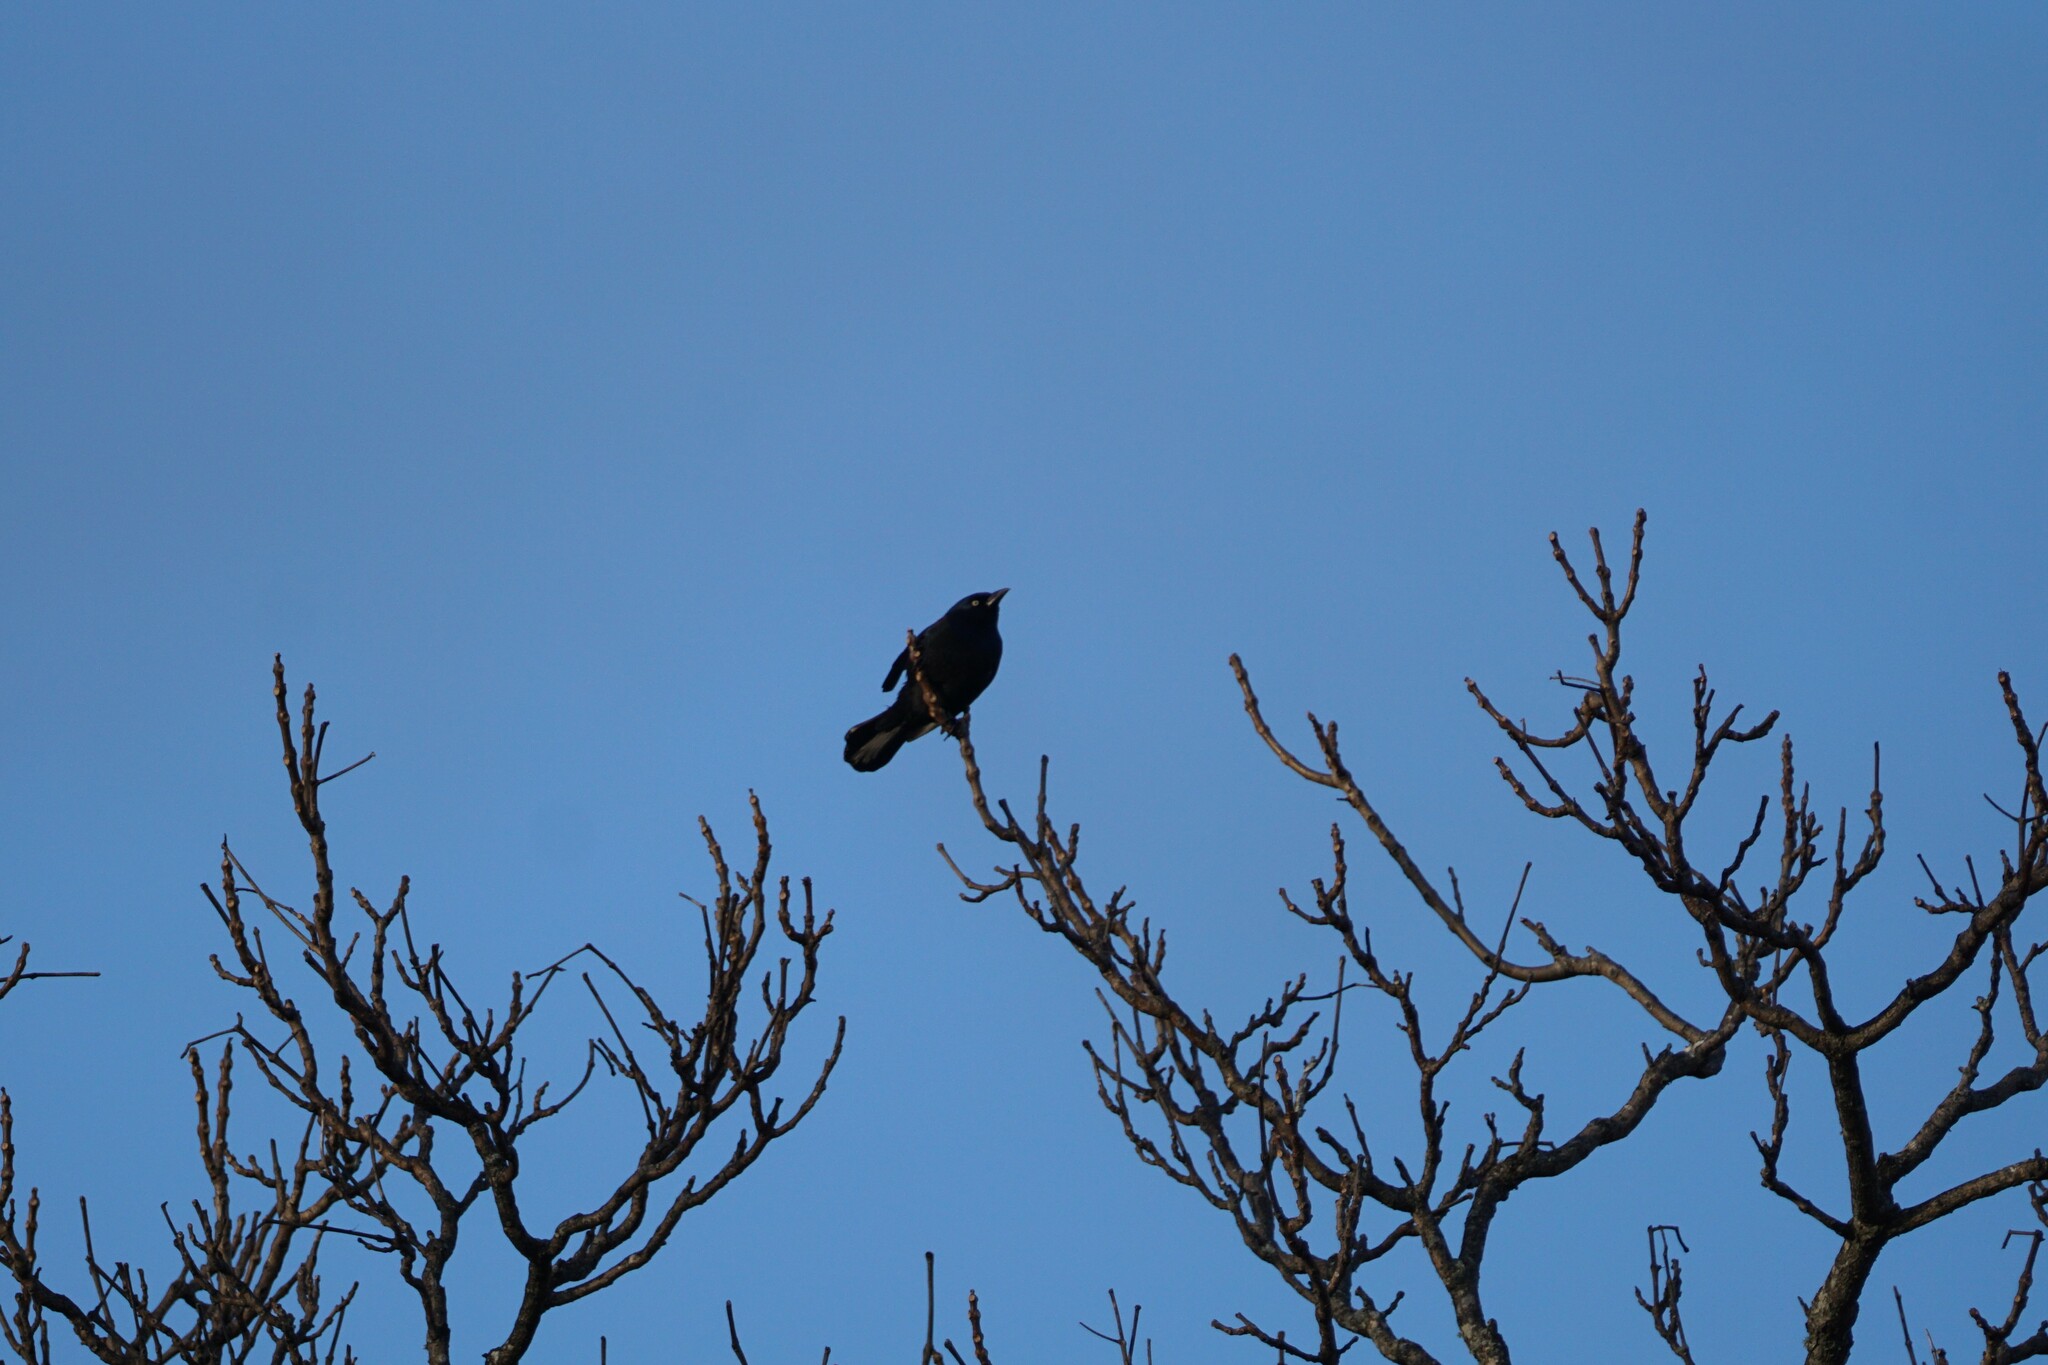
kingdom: Animalia
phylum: Chordata
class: Aves
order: Passeriformes
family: Icteridae
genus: Quiscalus
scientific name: Quiscalus quiscula
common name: Common grackle
